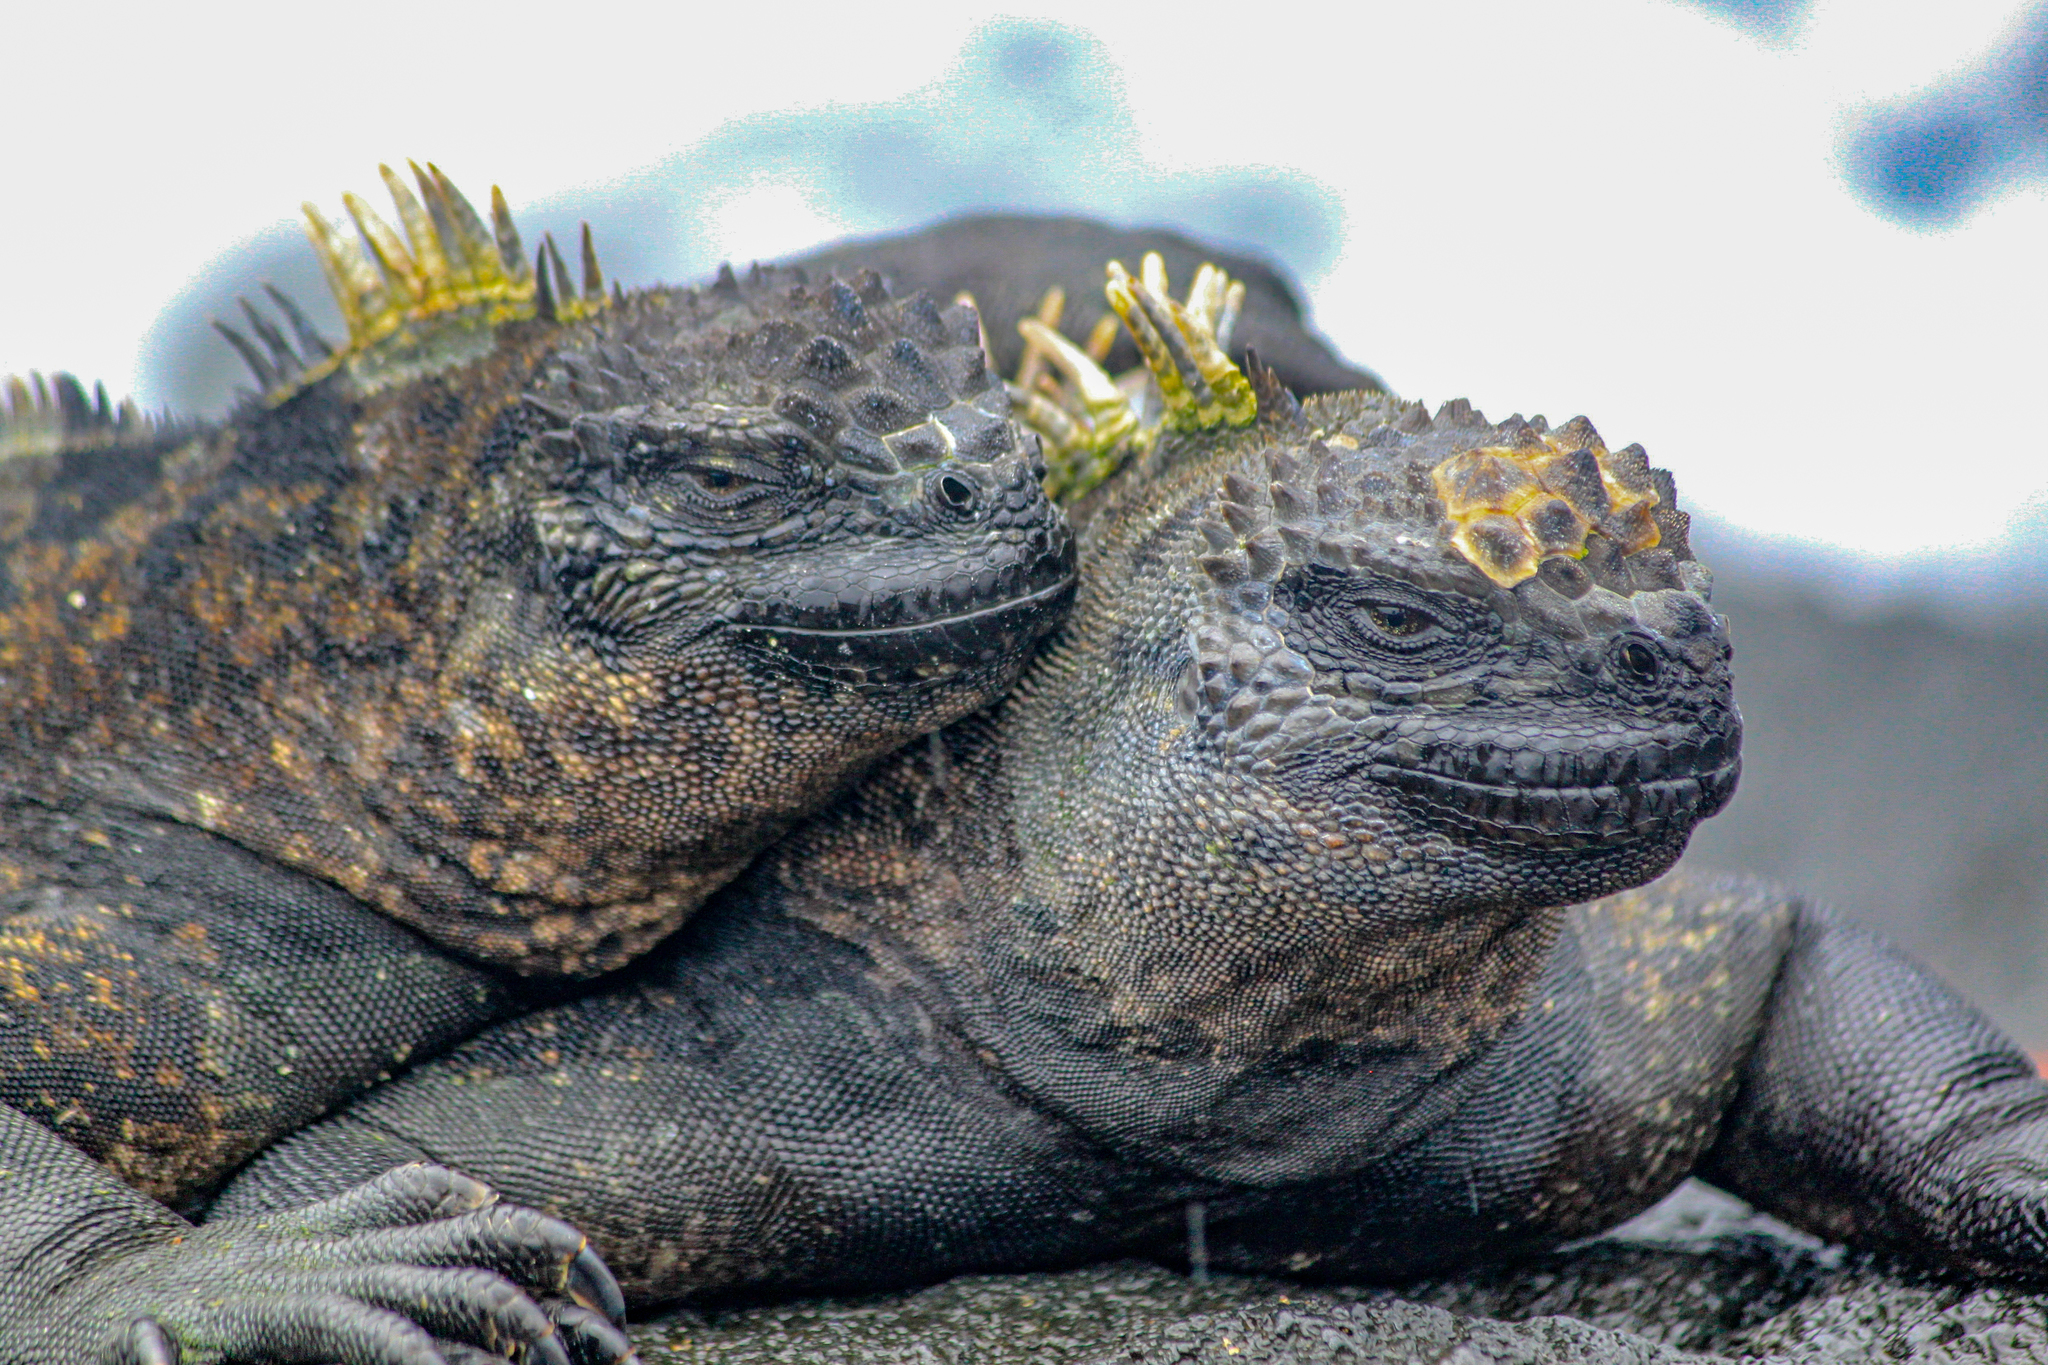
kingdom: Animalia
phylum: Chordata
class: Squamata
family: Iguanidae
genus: Amblyrhynchus
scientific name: Amblyrhynchus cristatus
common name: Marine iguana
